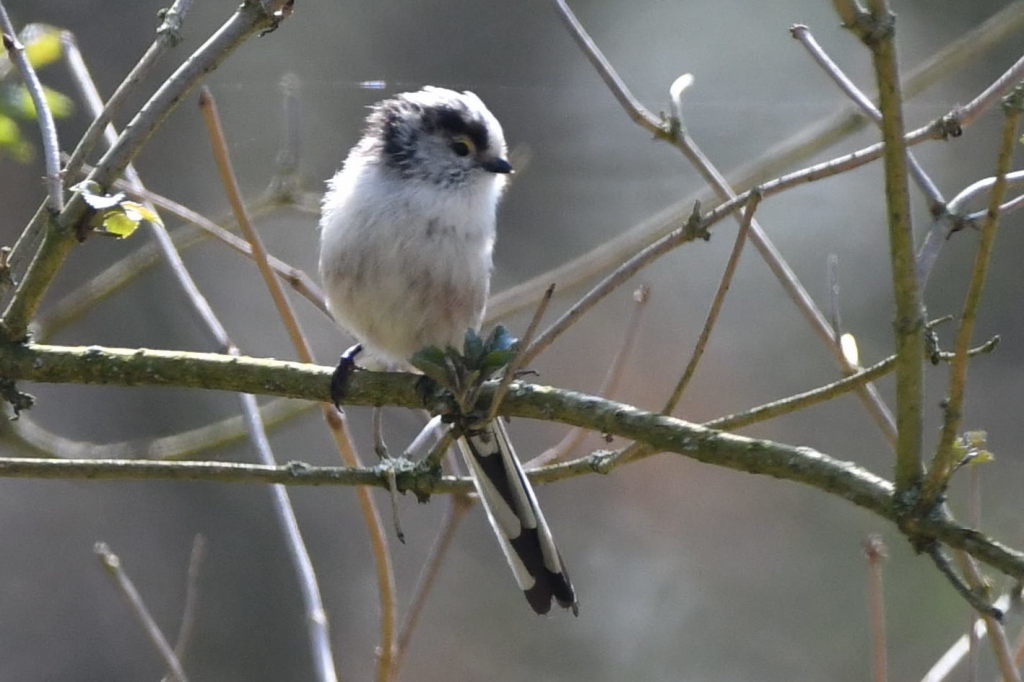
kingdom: Animalia
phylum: Chordata
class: Aves
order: Passeriformes
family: Aegithalidae
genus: Aegithalos
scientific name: Aegithalos caudatus
